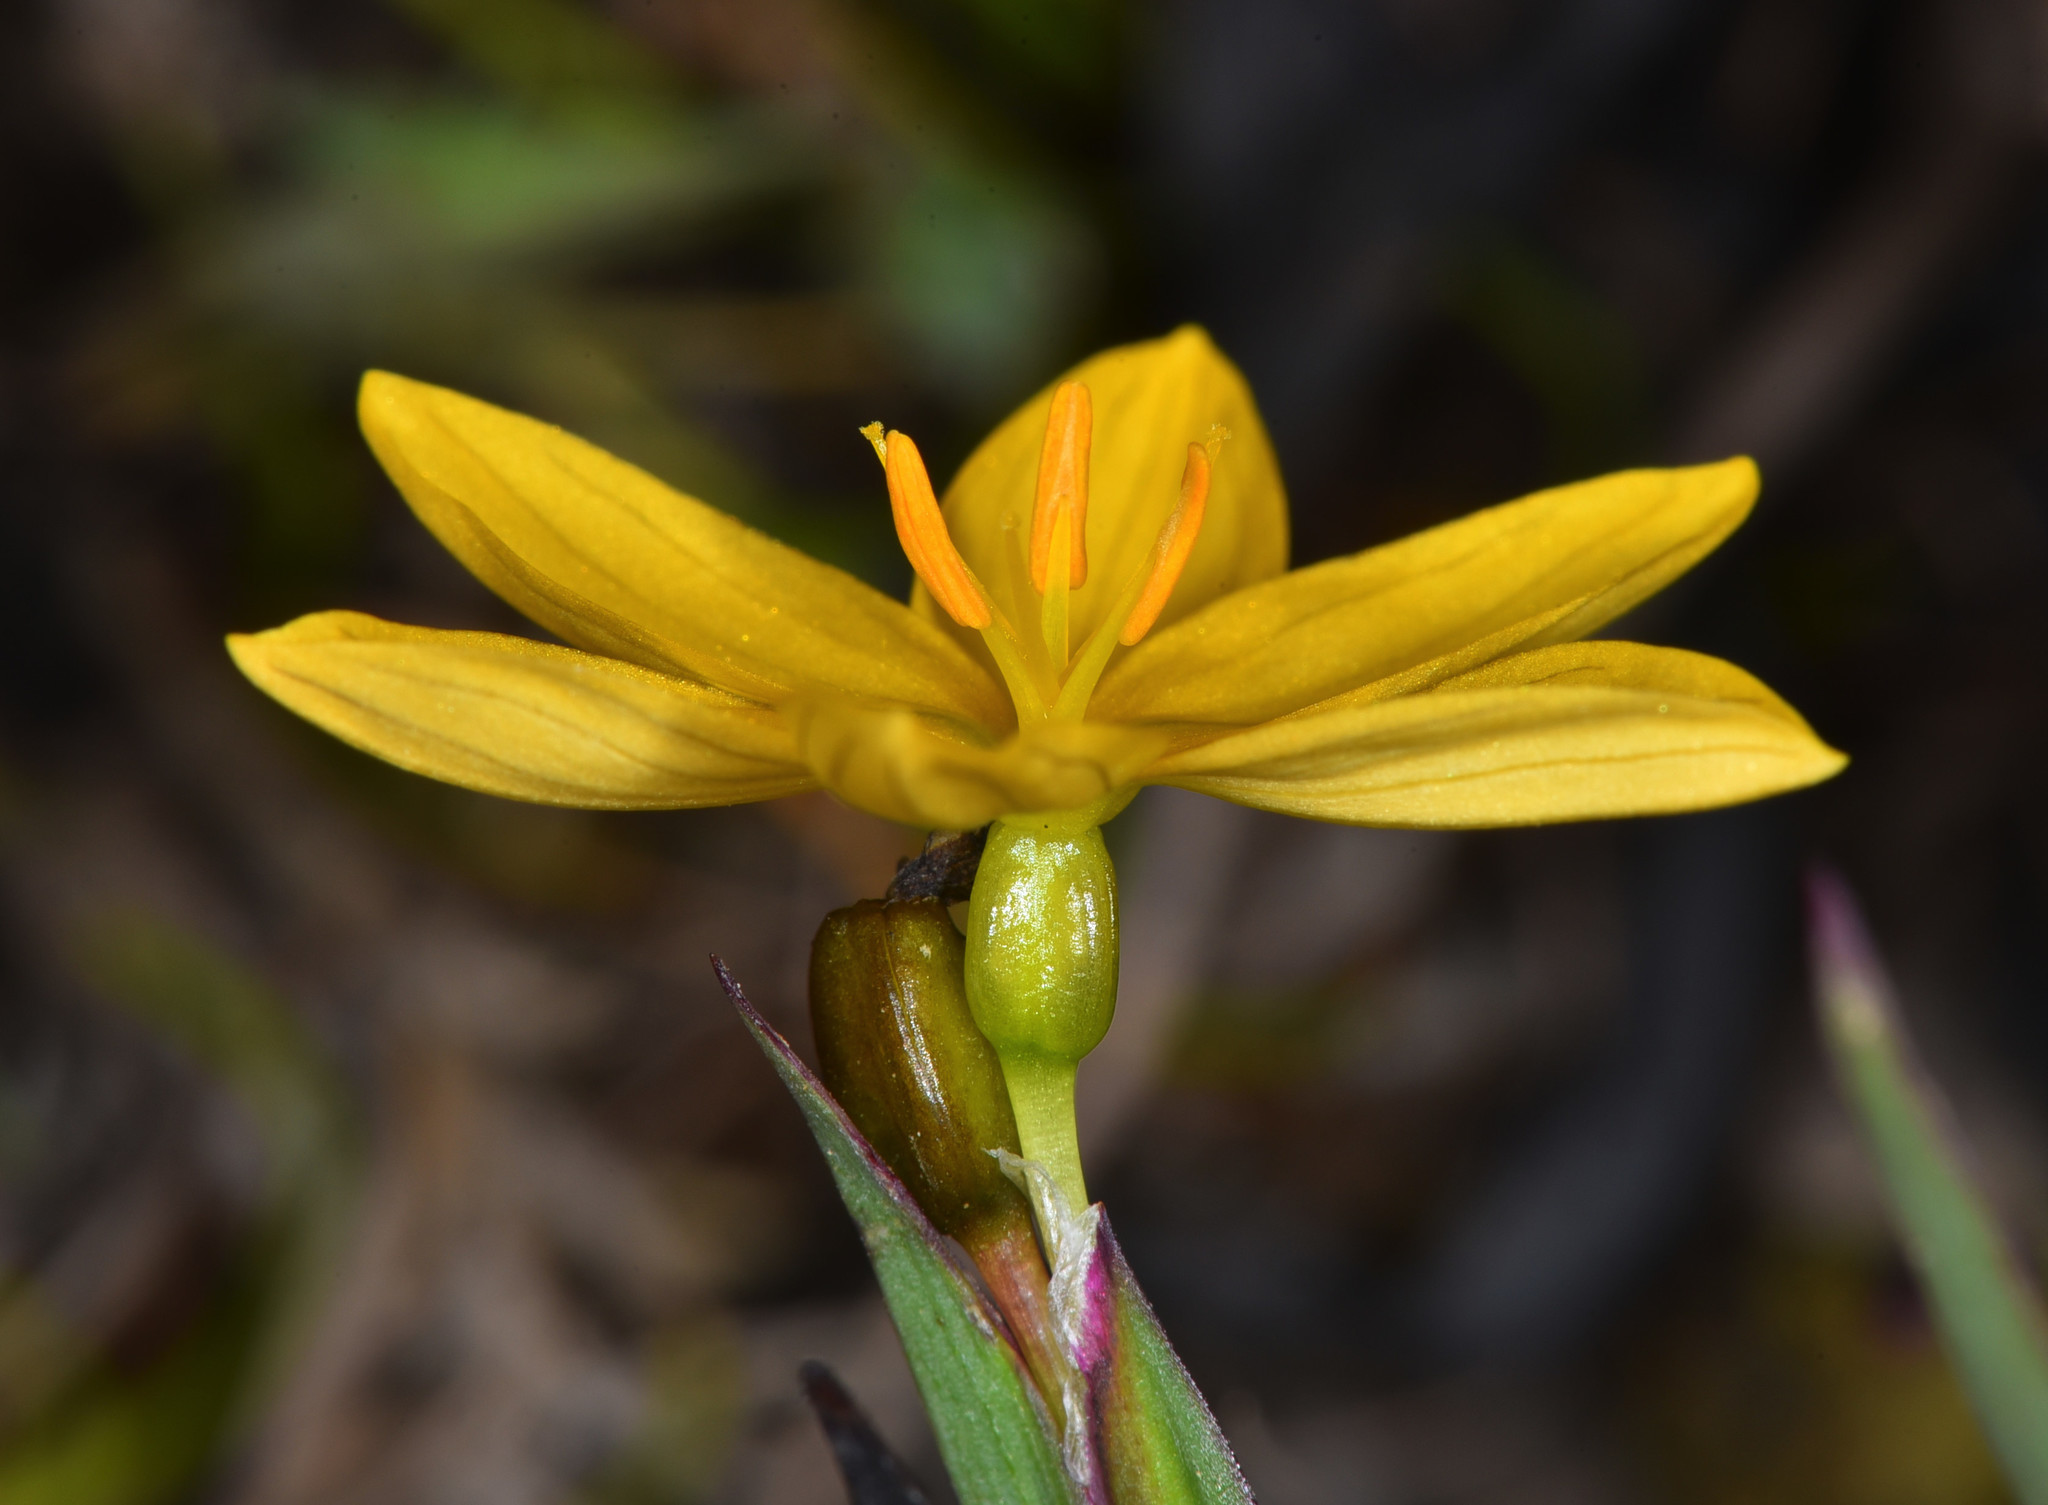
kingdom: Plantae
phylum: Tracheophyta
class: Liliopsida
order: Asparagales
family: Iridaceae
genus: Sisyrinchium
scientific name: Sisyrinchium californicum
